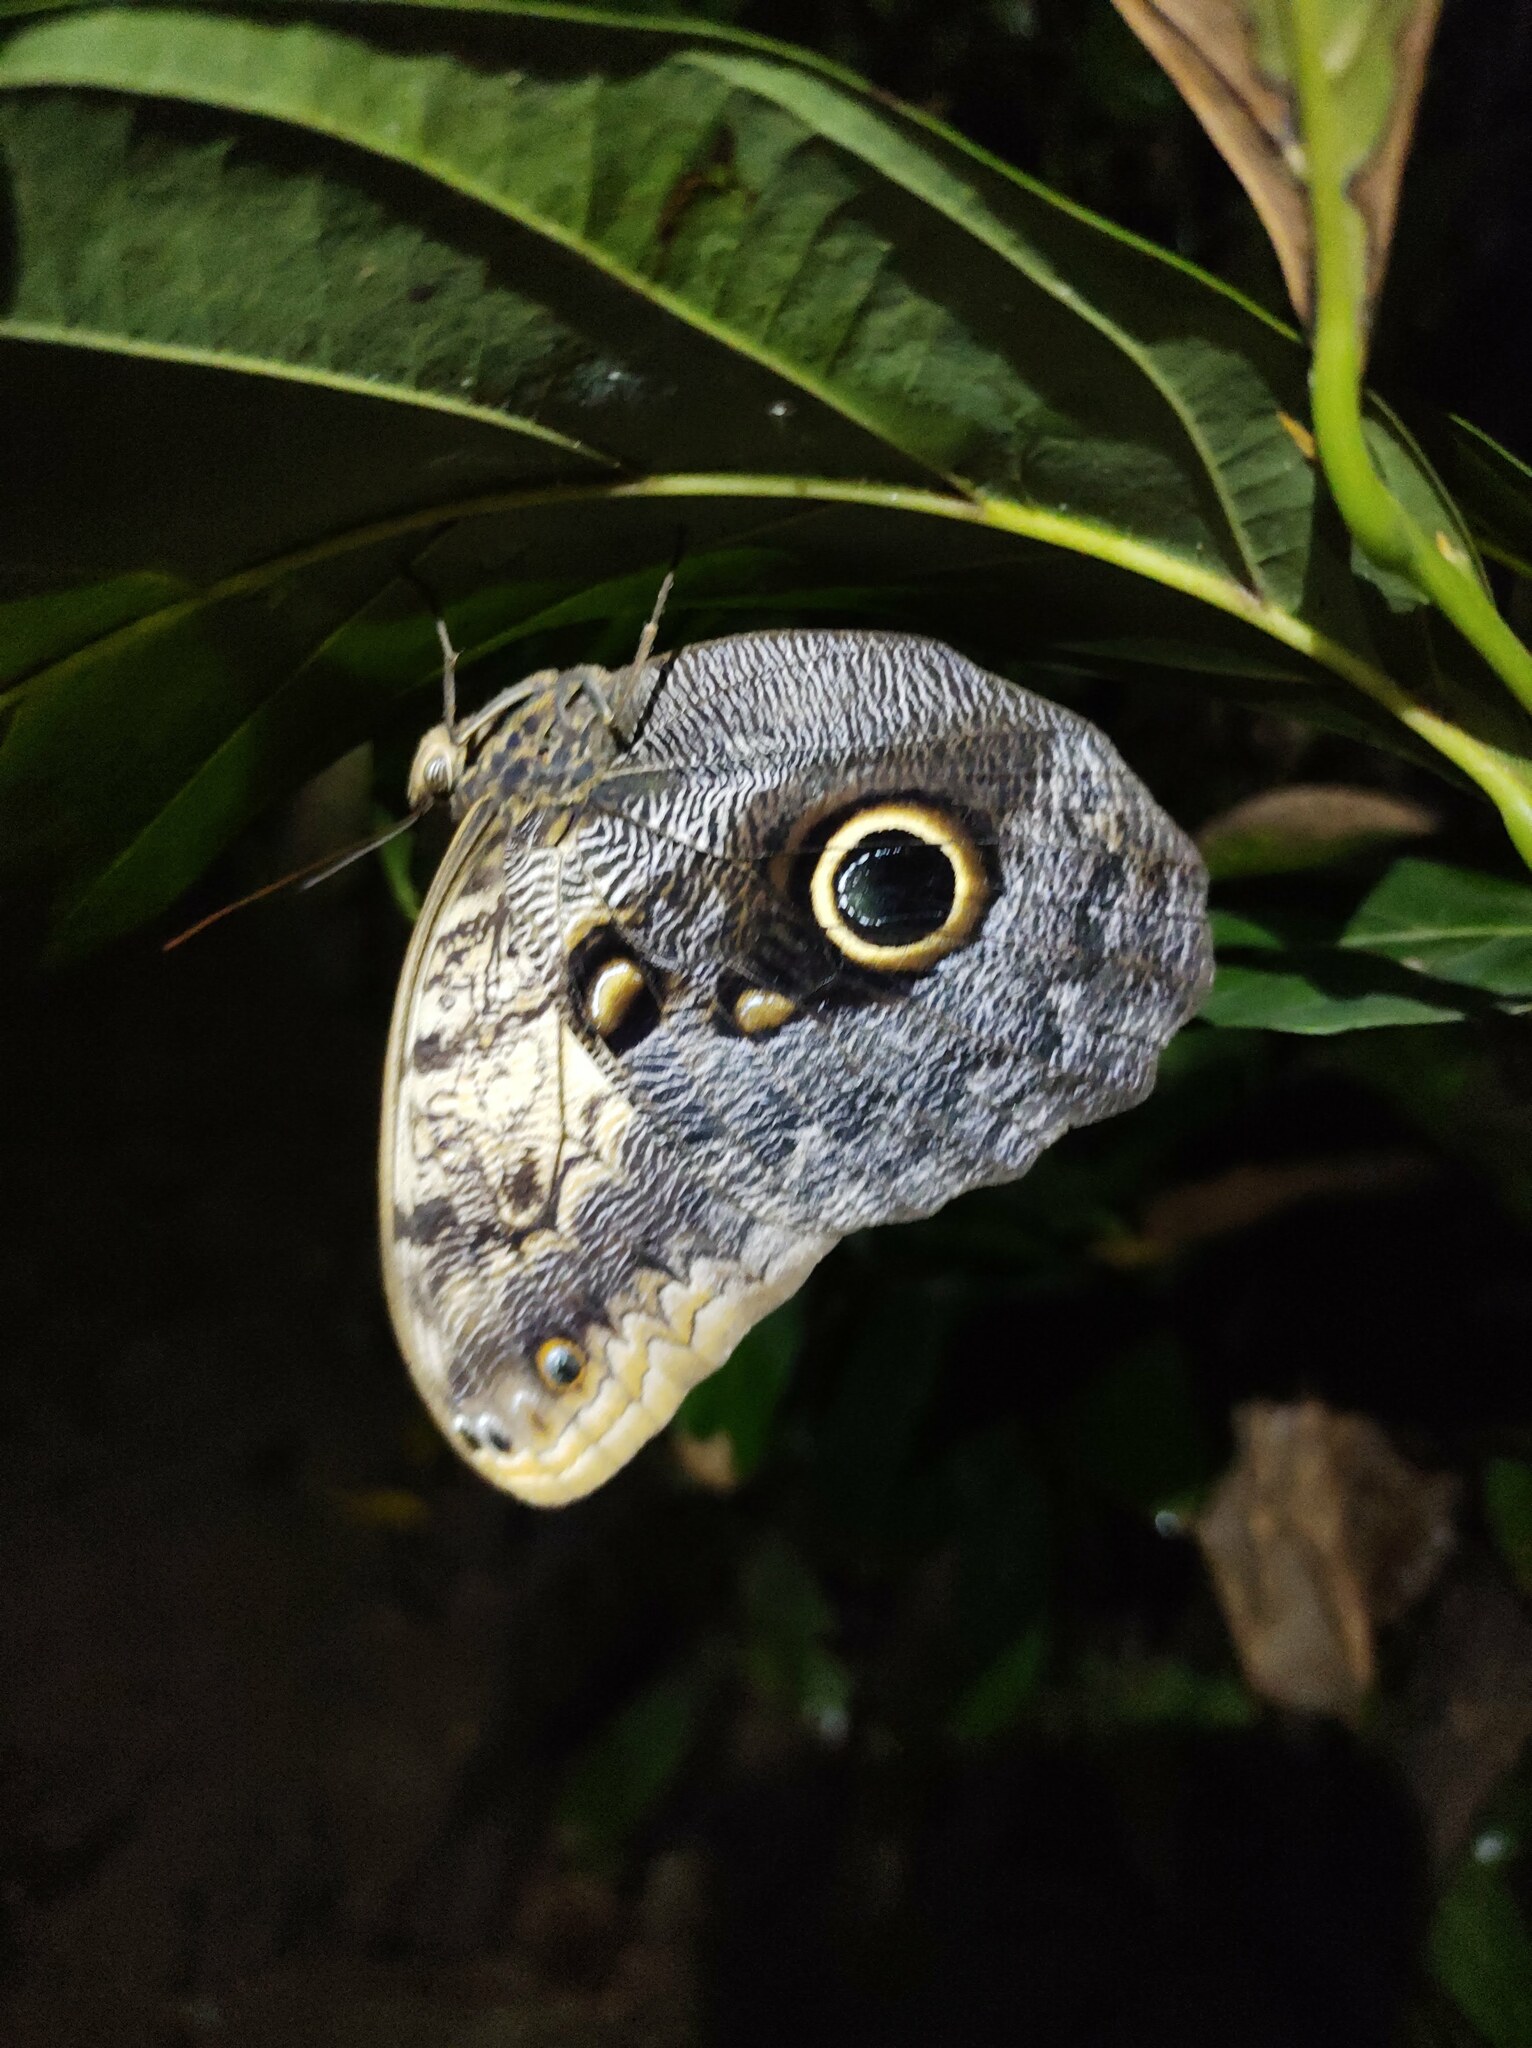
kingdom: Animalia
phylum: Arthropoda
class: Insecta
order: Lepidoptera
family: Nymphalidae
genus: Caligo
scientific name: Caligo telamonius
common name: Pale owl-butterfly
